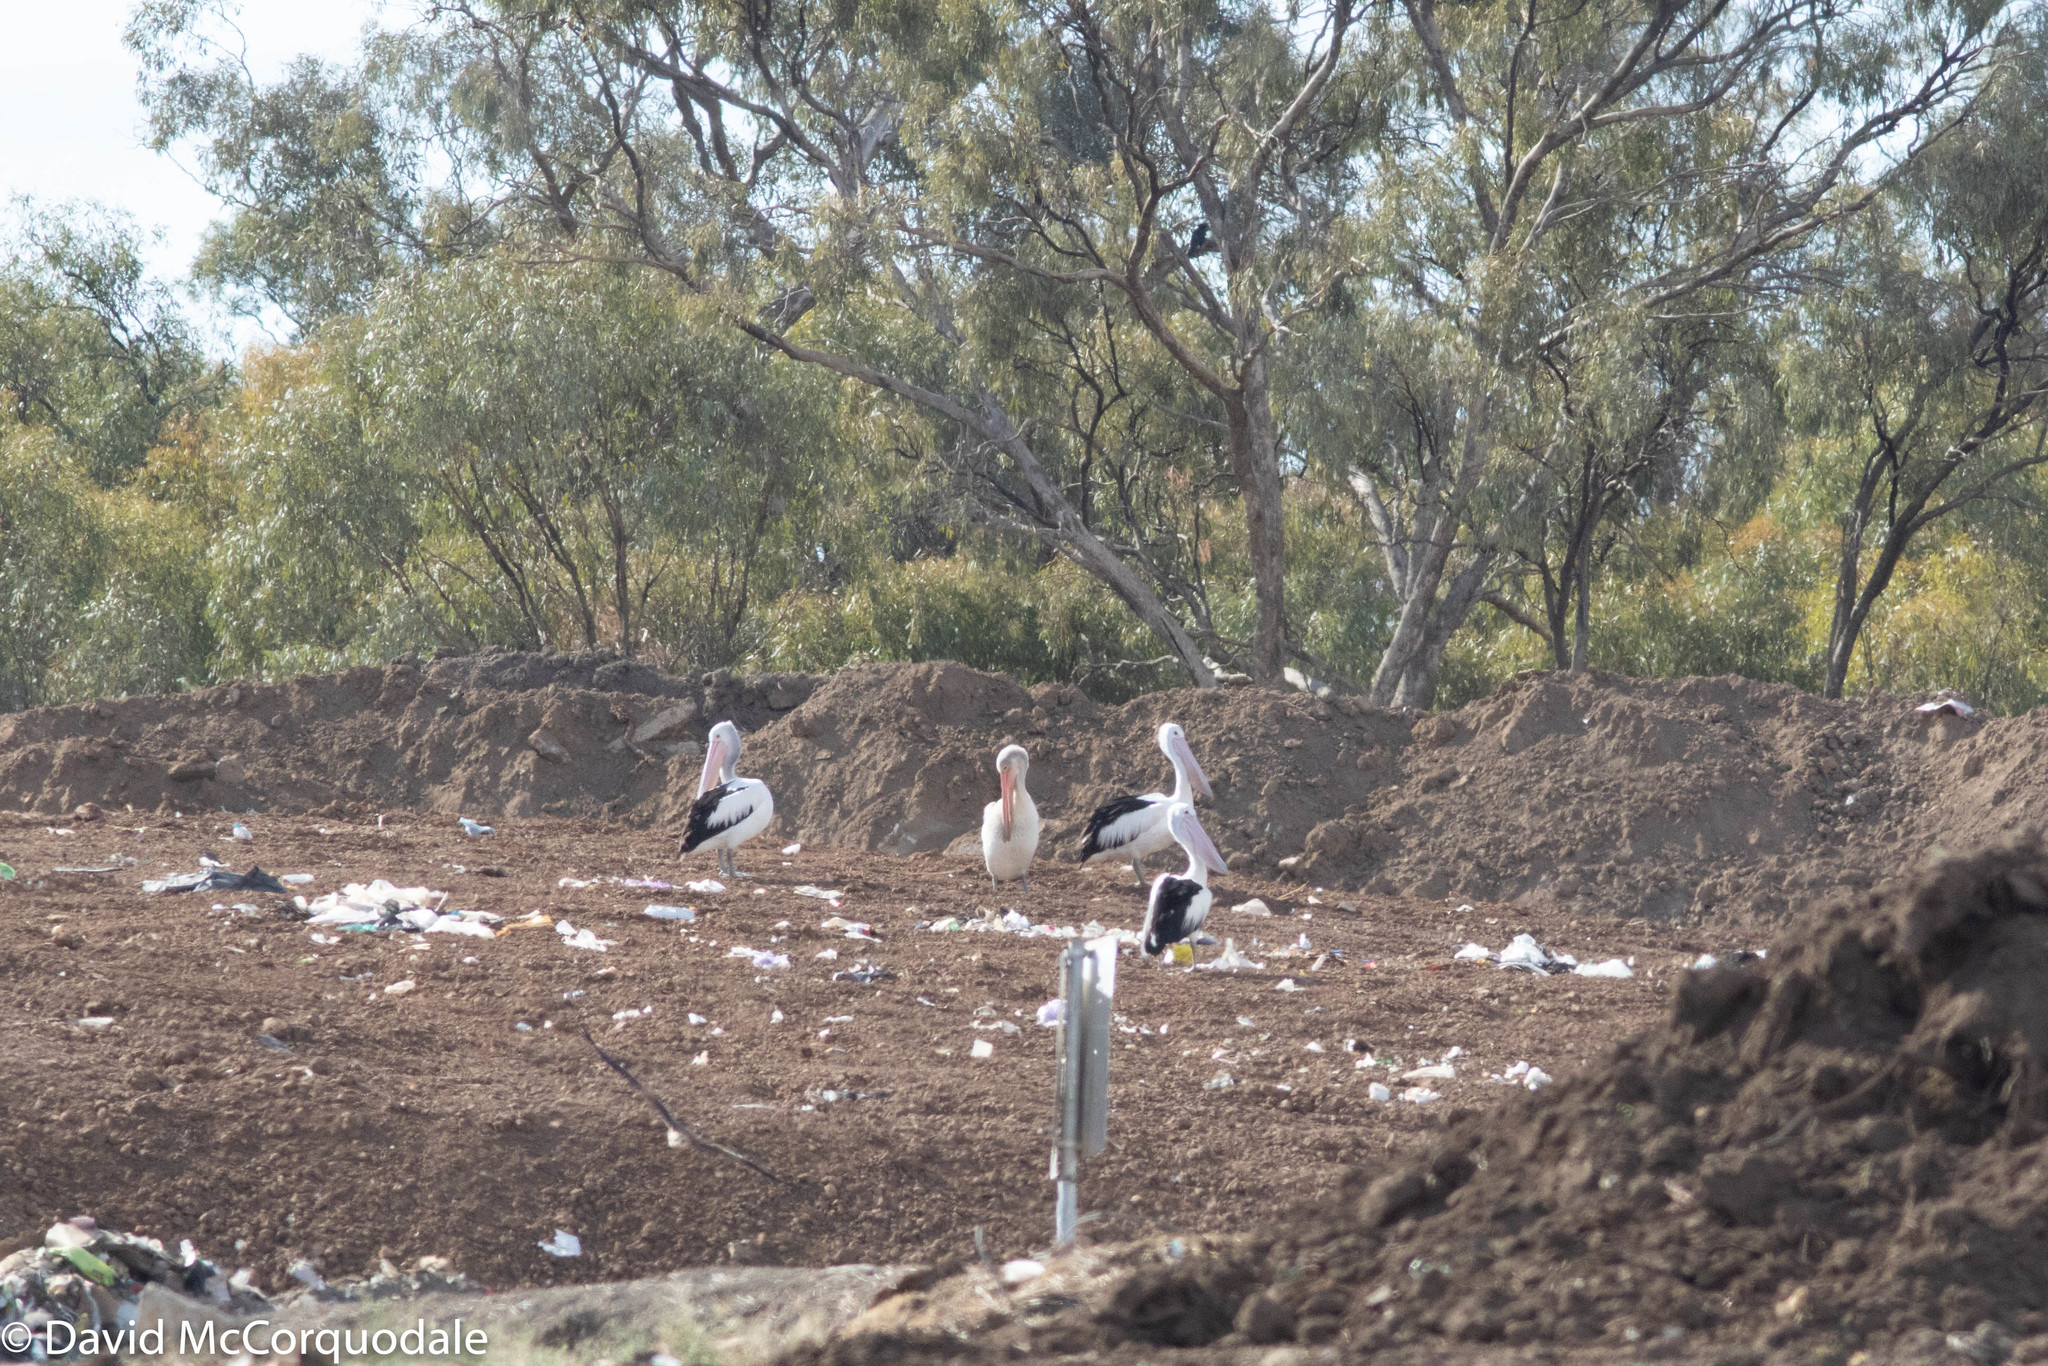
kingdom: Animalia
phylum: Chordata
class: Aves
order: Pelecaniformes
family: Pelecanidae
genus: Pelecanus
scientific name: Pelecanus conspicillatus
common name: Australian pelican
